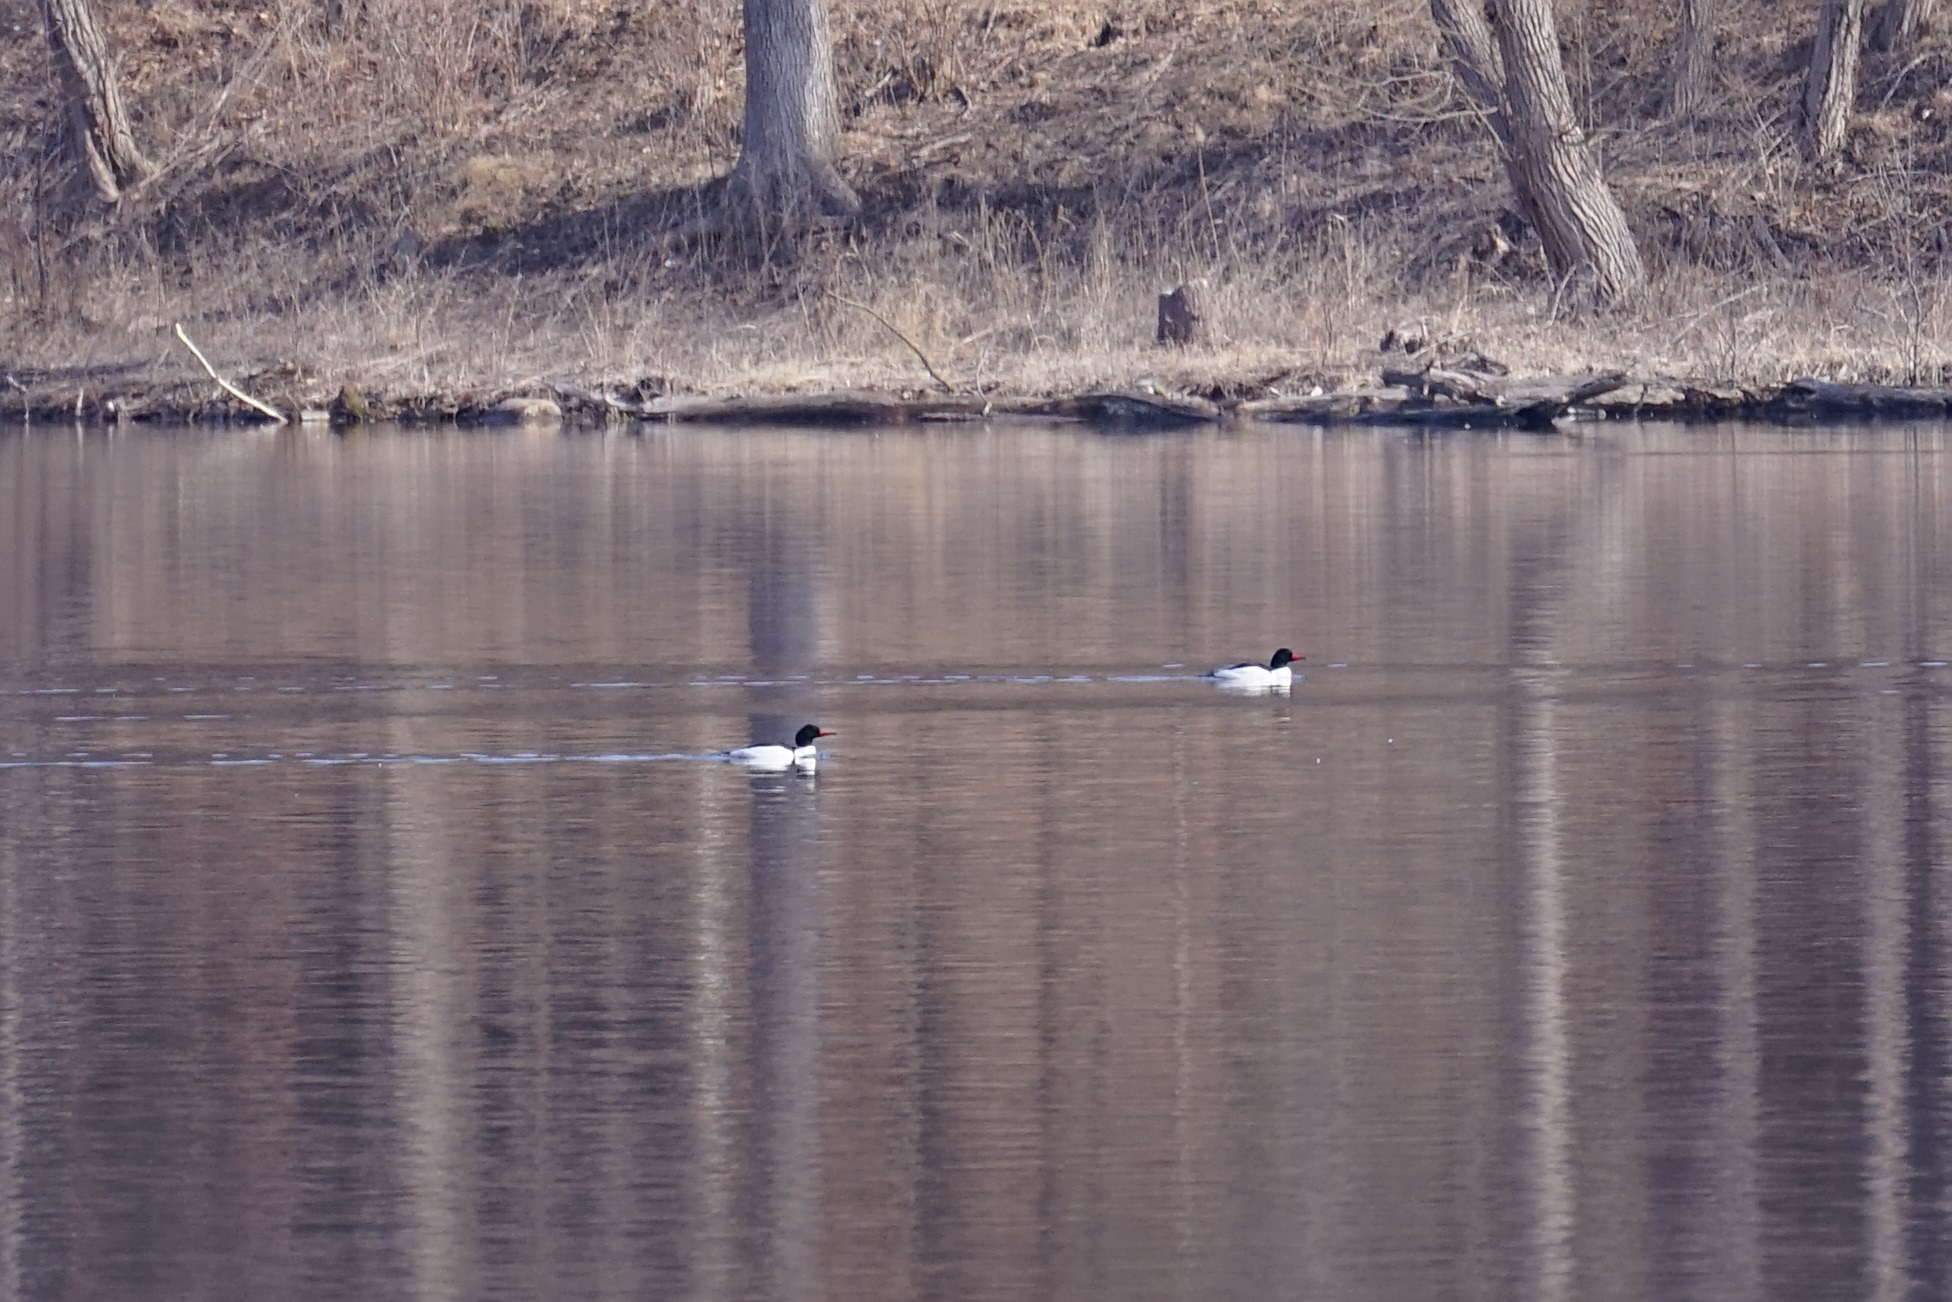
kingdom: Animalia
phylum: Chordata
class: Aves
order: Anseriformes
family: Anatidae
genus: Mergus
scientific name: Mergus merganser
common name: Common merganser
